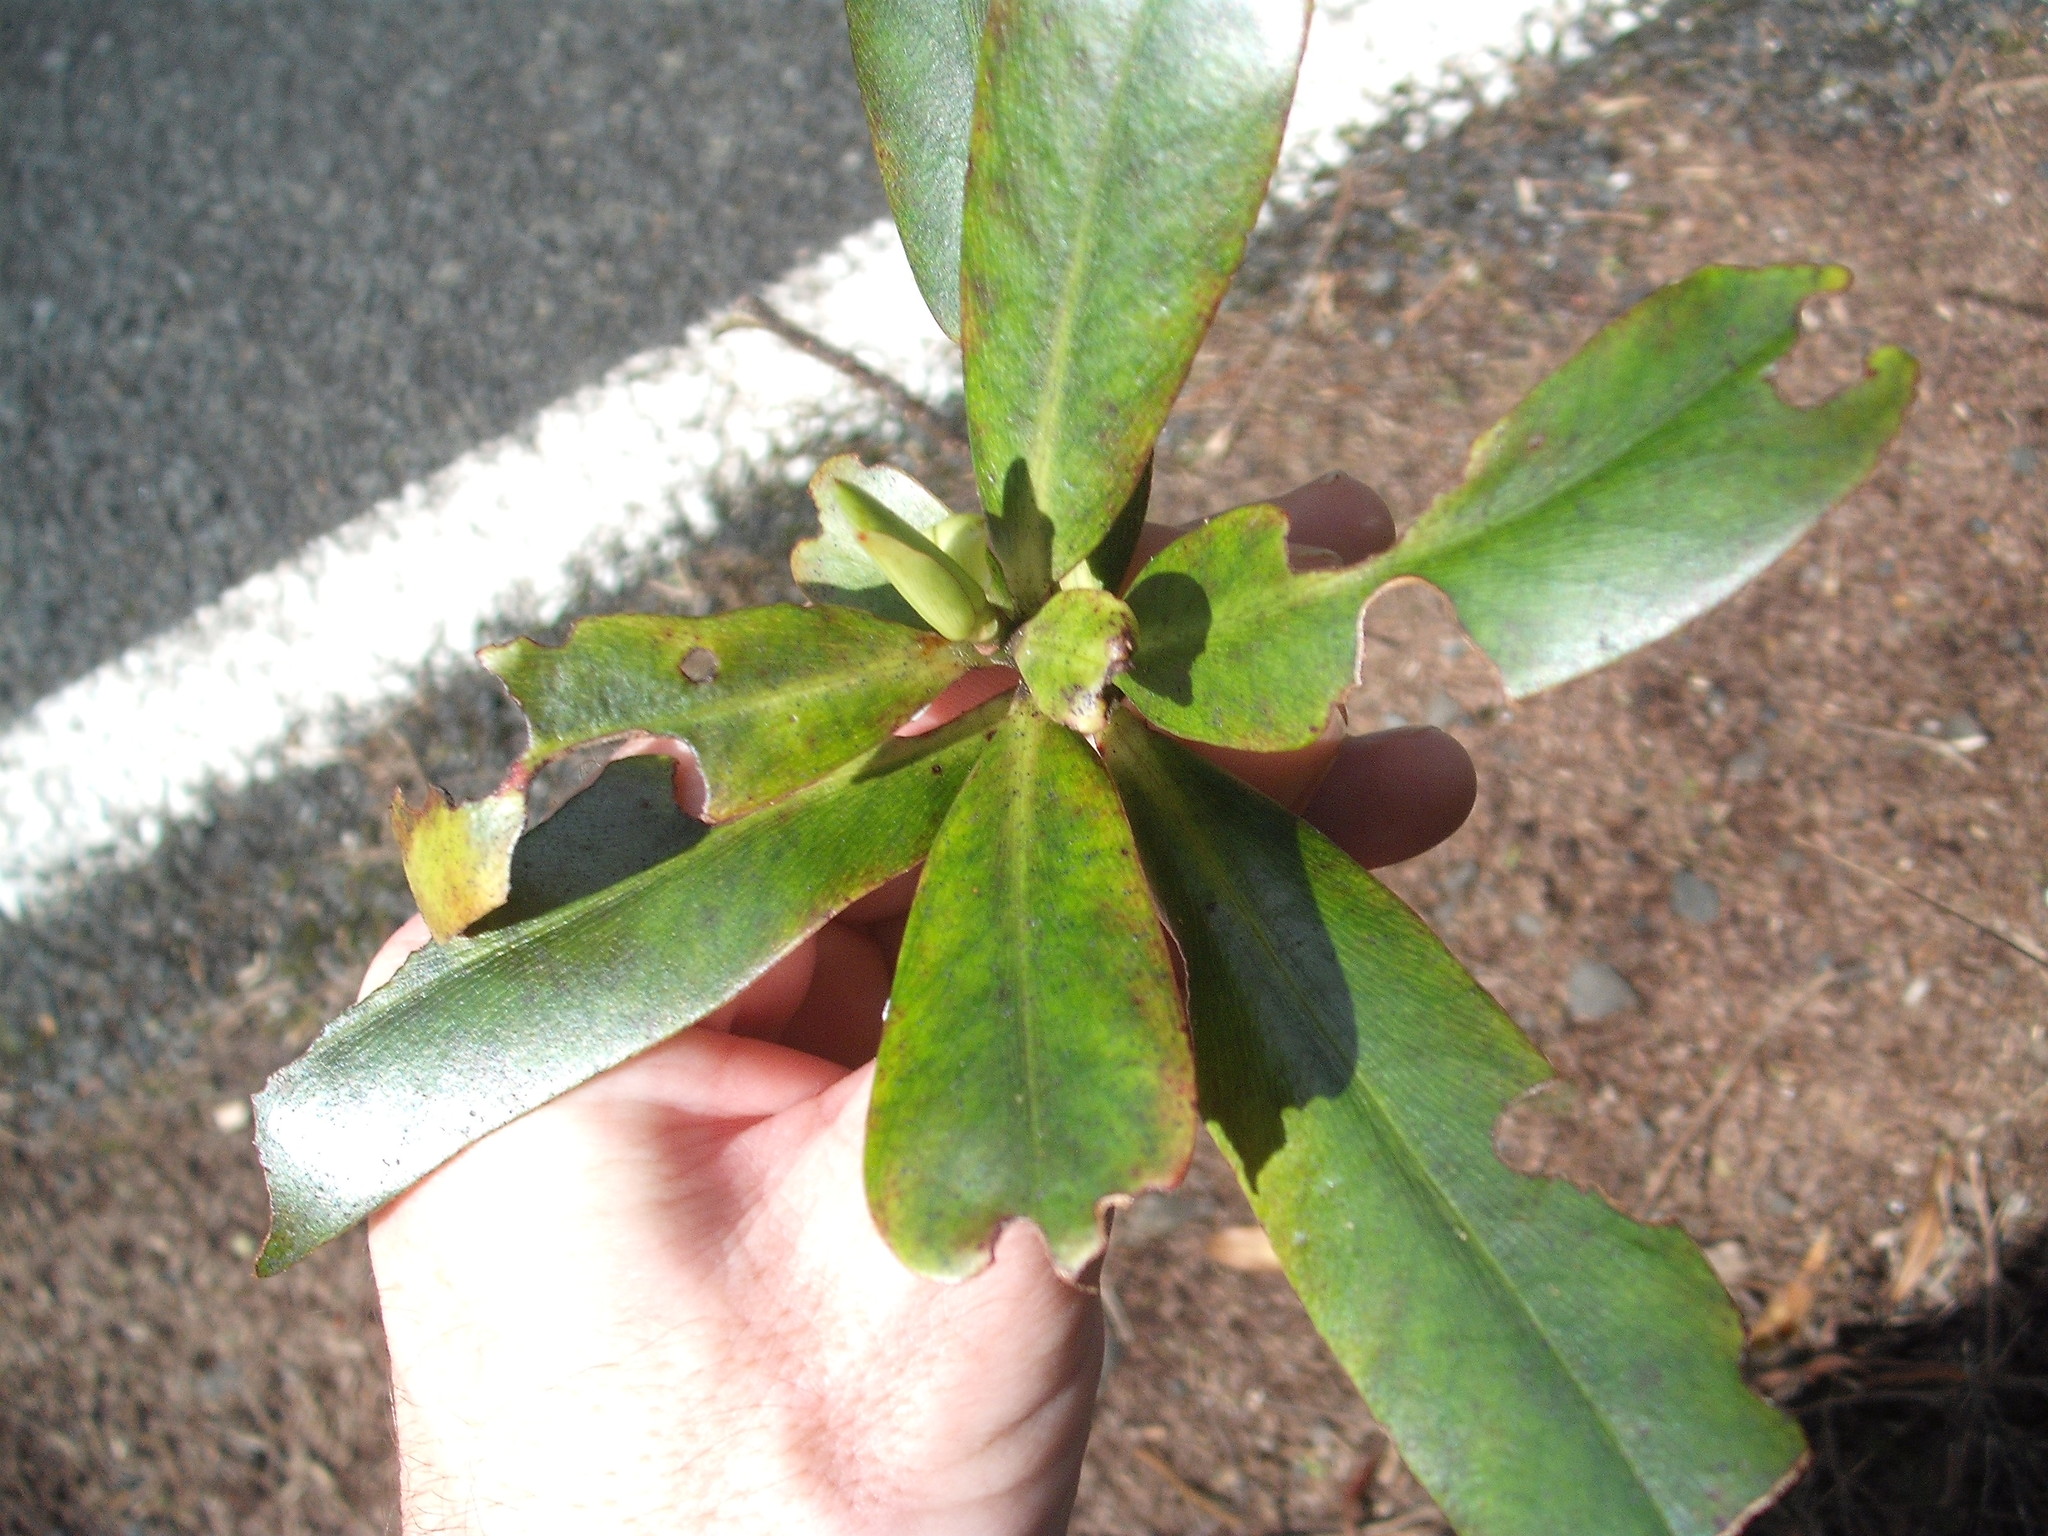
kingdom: Plantae
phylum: Tracheophyta
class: Magnoliopsida
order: Ericales
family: Primulaceae
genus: Myrsine
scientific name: Myrsine salicina
